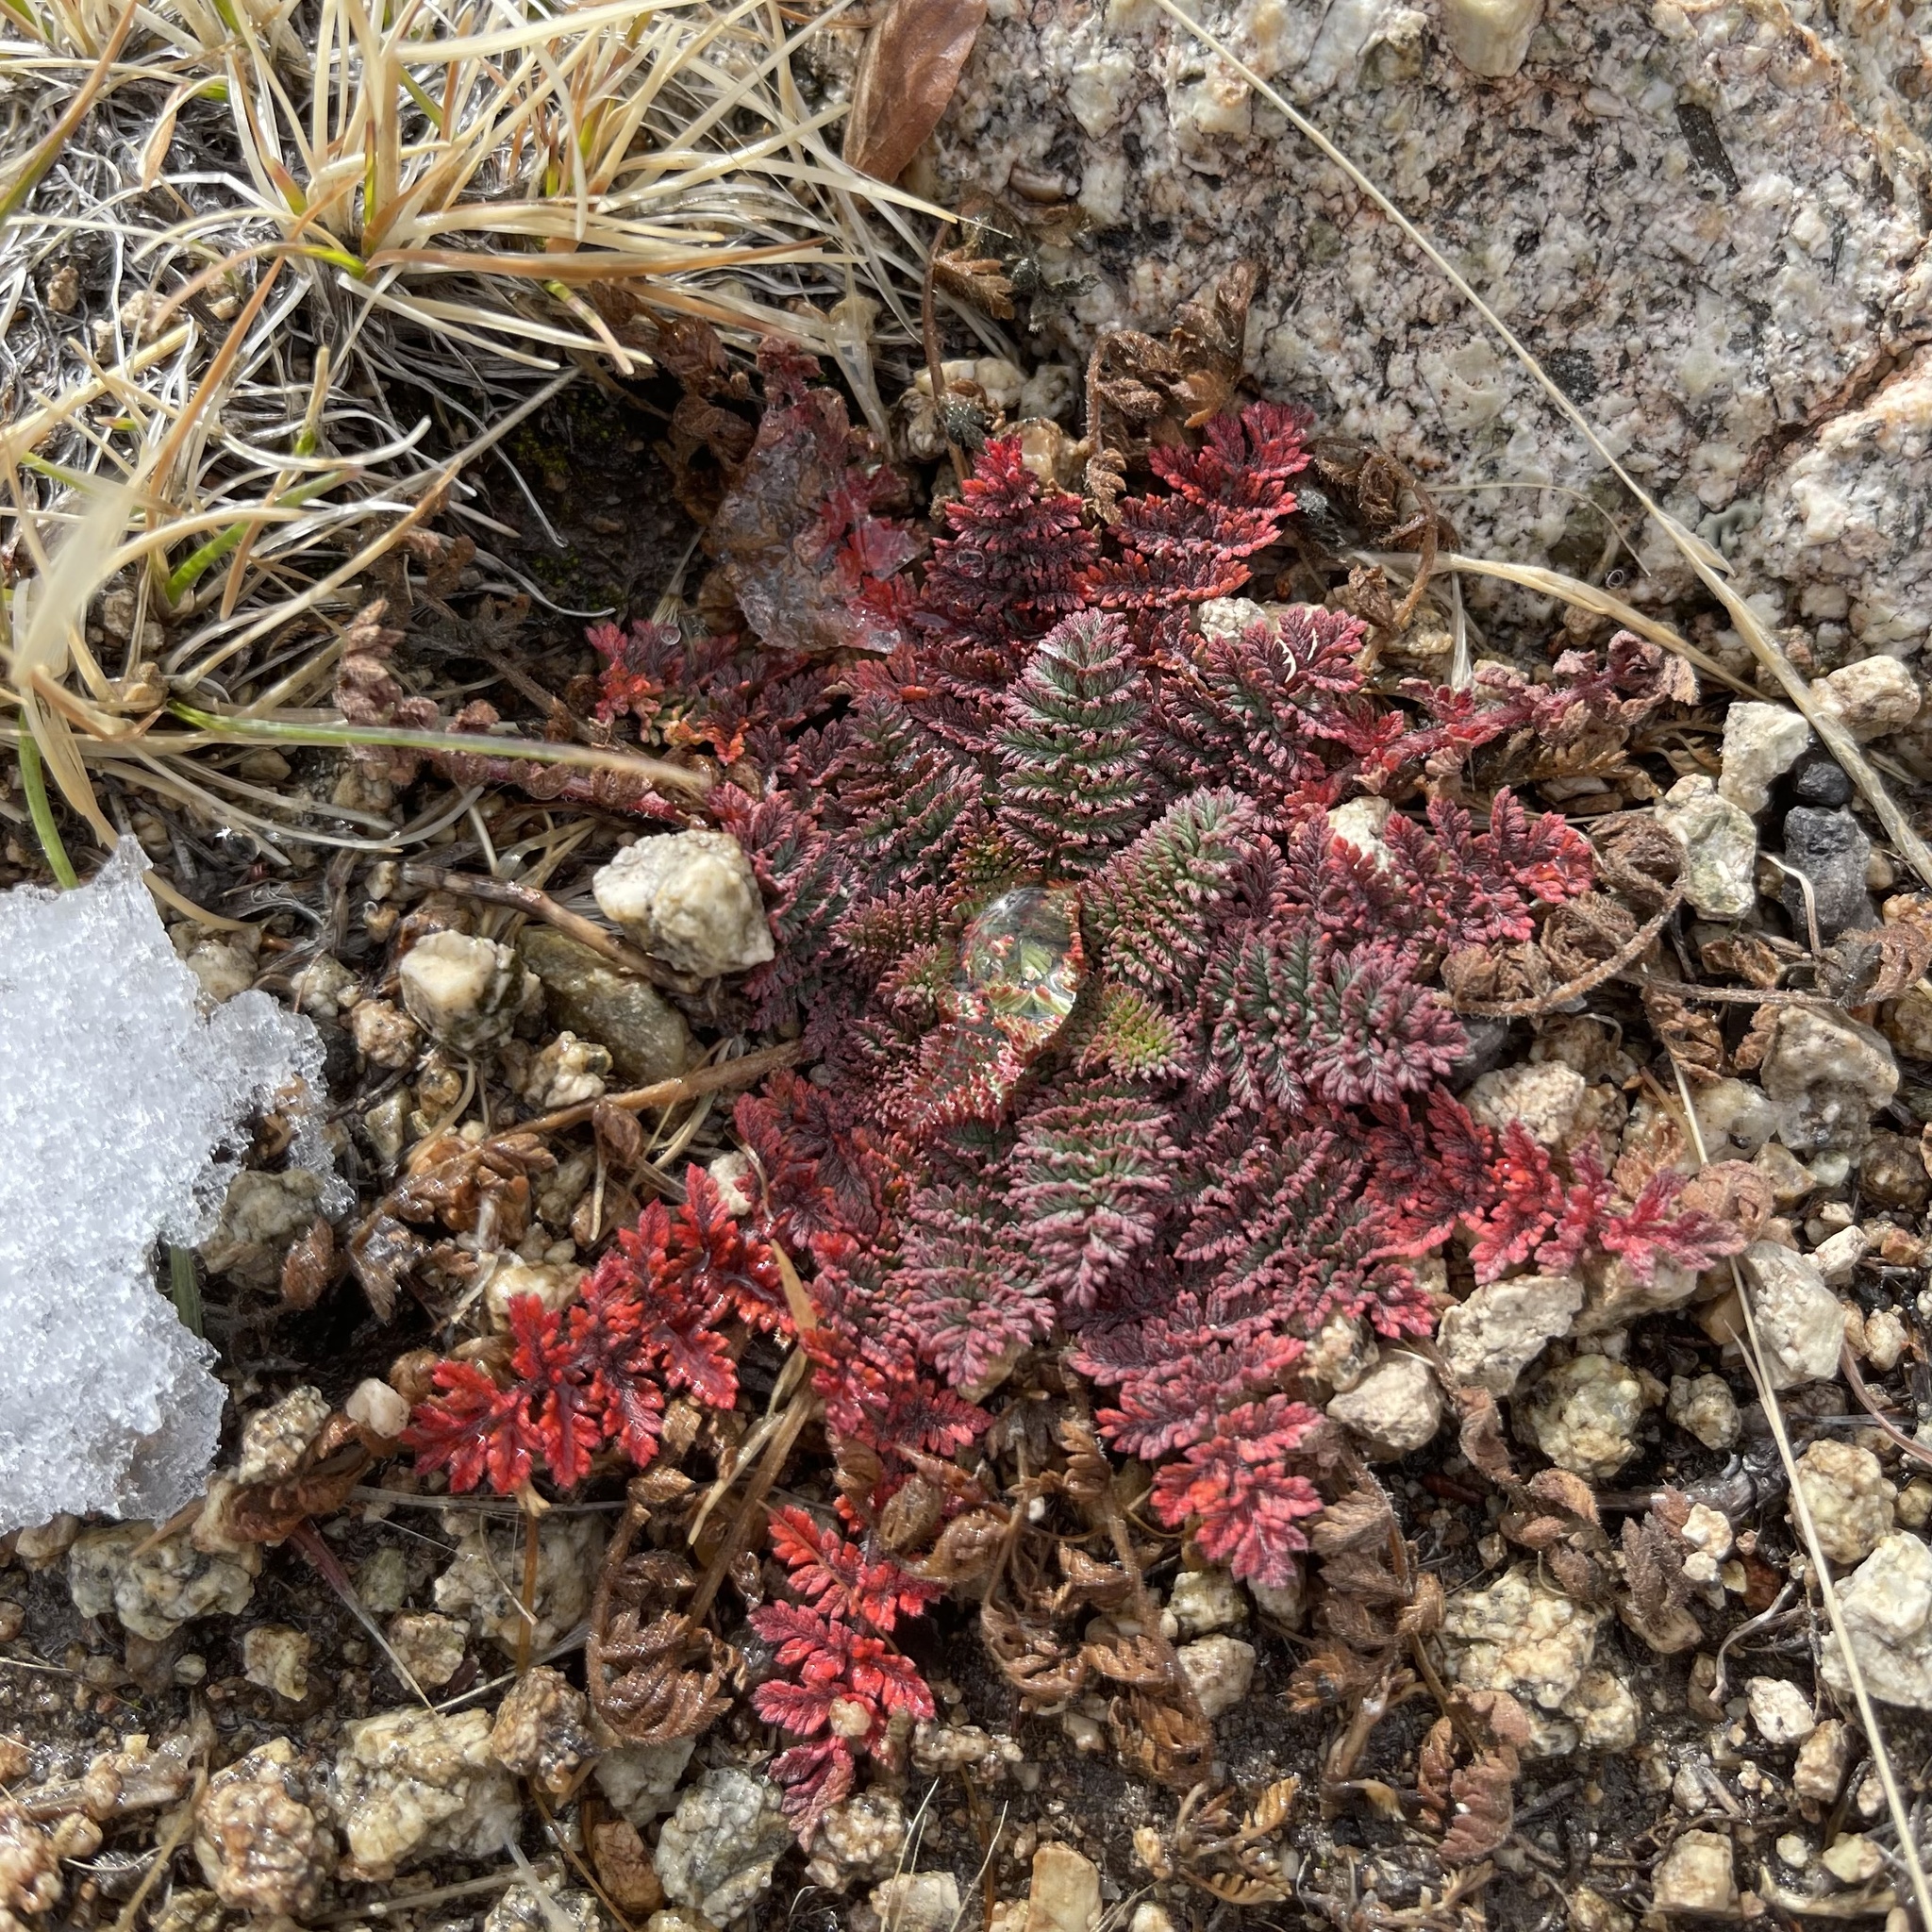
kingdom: Plantae
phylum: Tracheophyta
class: Magnoliopsida
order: Geraniales
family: Geraniaceae
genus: Erodium
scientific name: Erodium cicutarium
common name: Common stork's-bill
